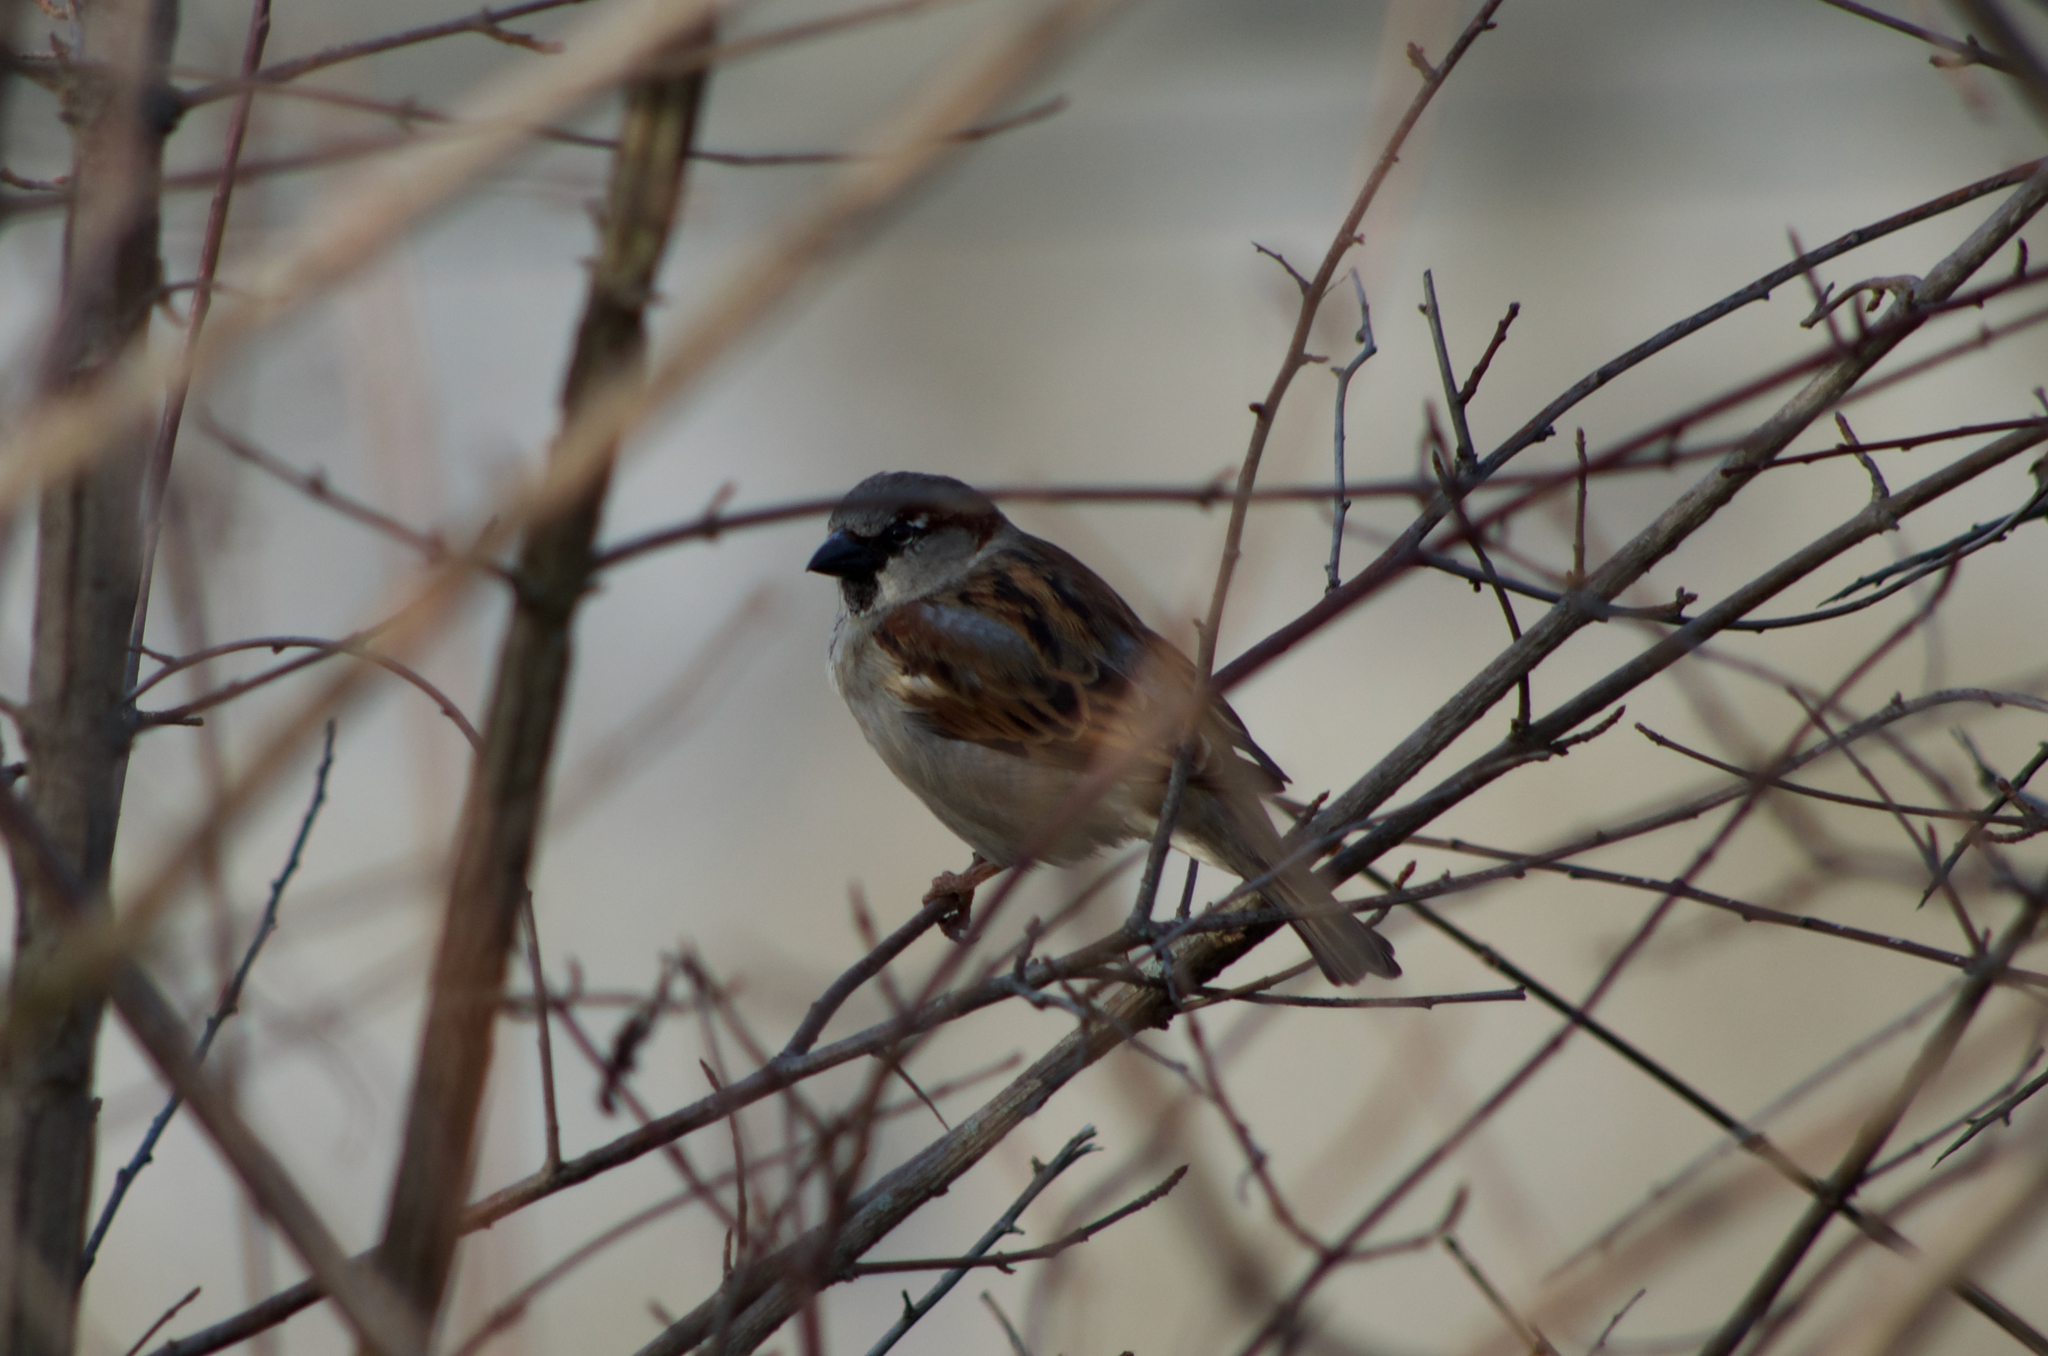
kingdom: Animalia
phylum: Chordata
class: Aves
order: Passeriformes
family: Passeridae
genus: Passer
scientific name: Passer domesticus
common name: House sparrow
